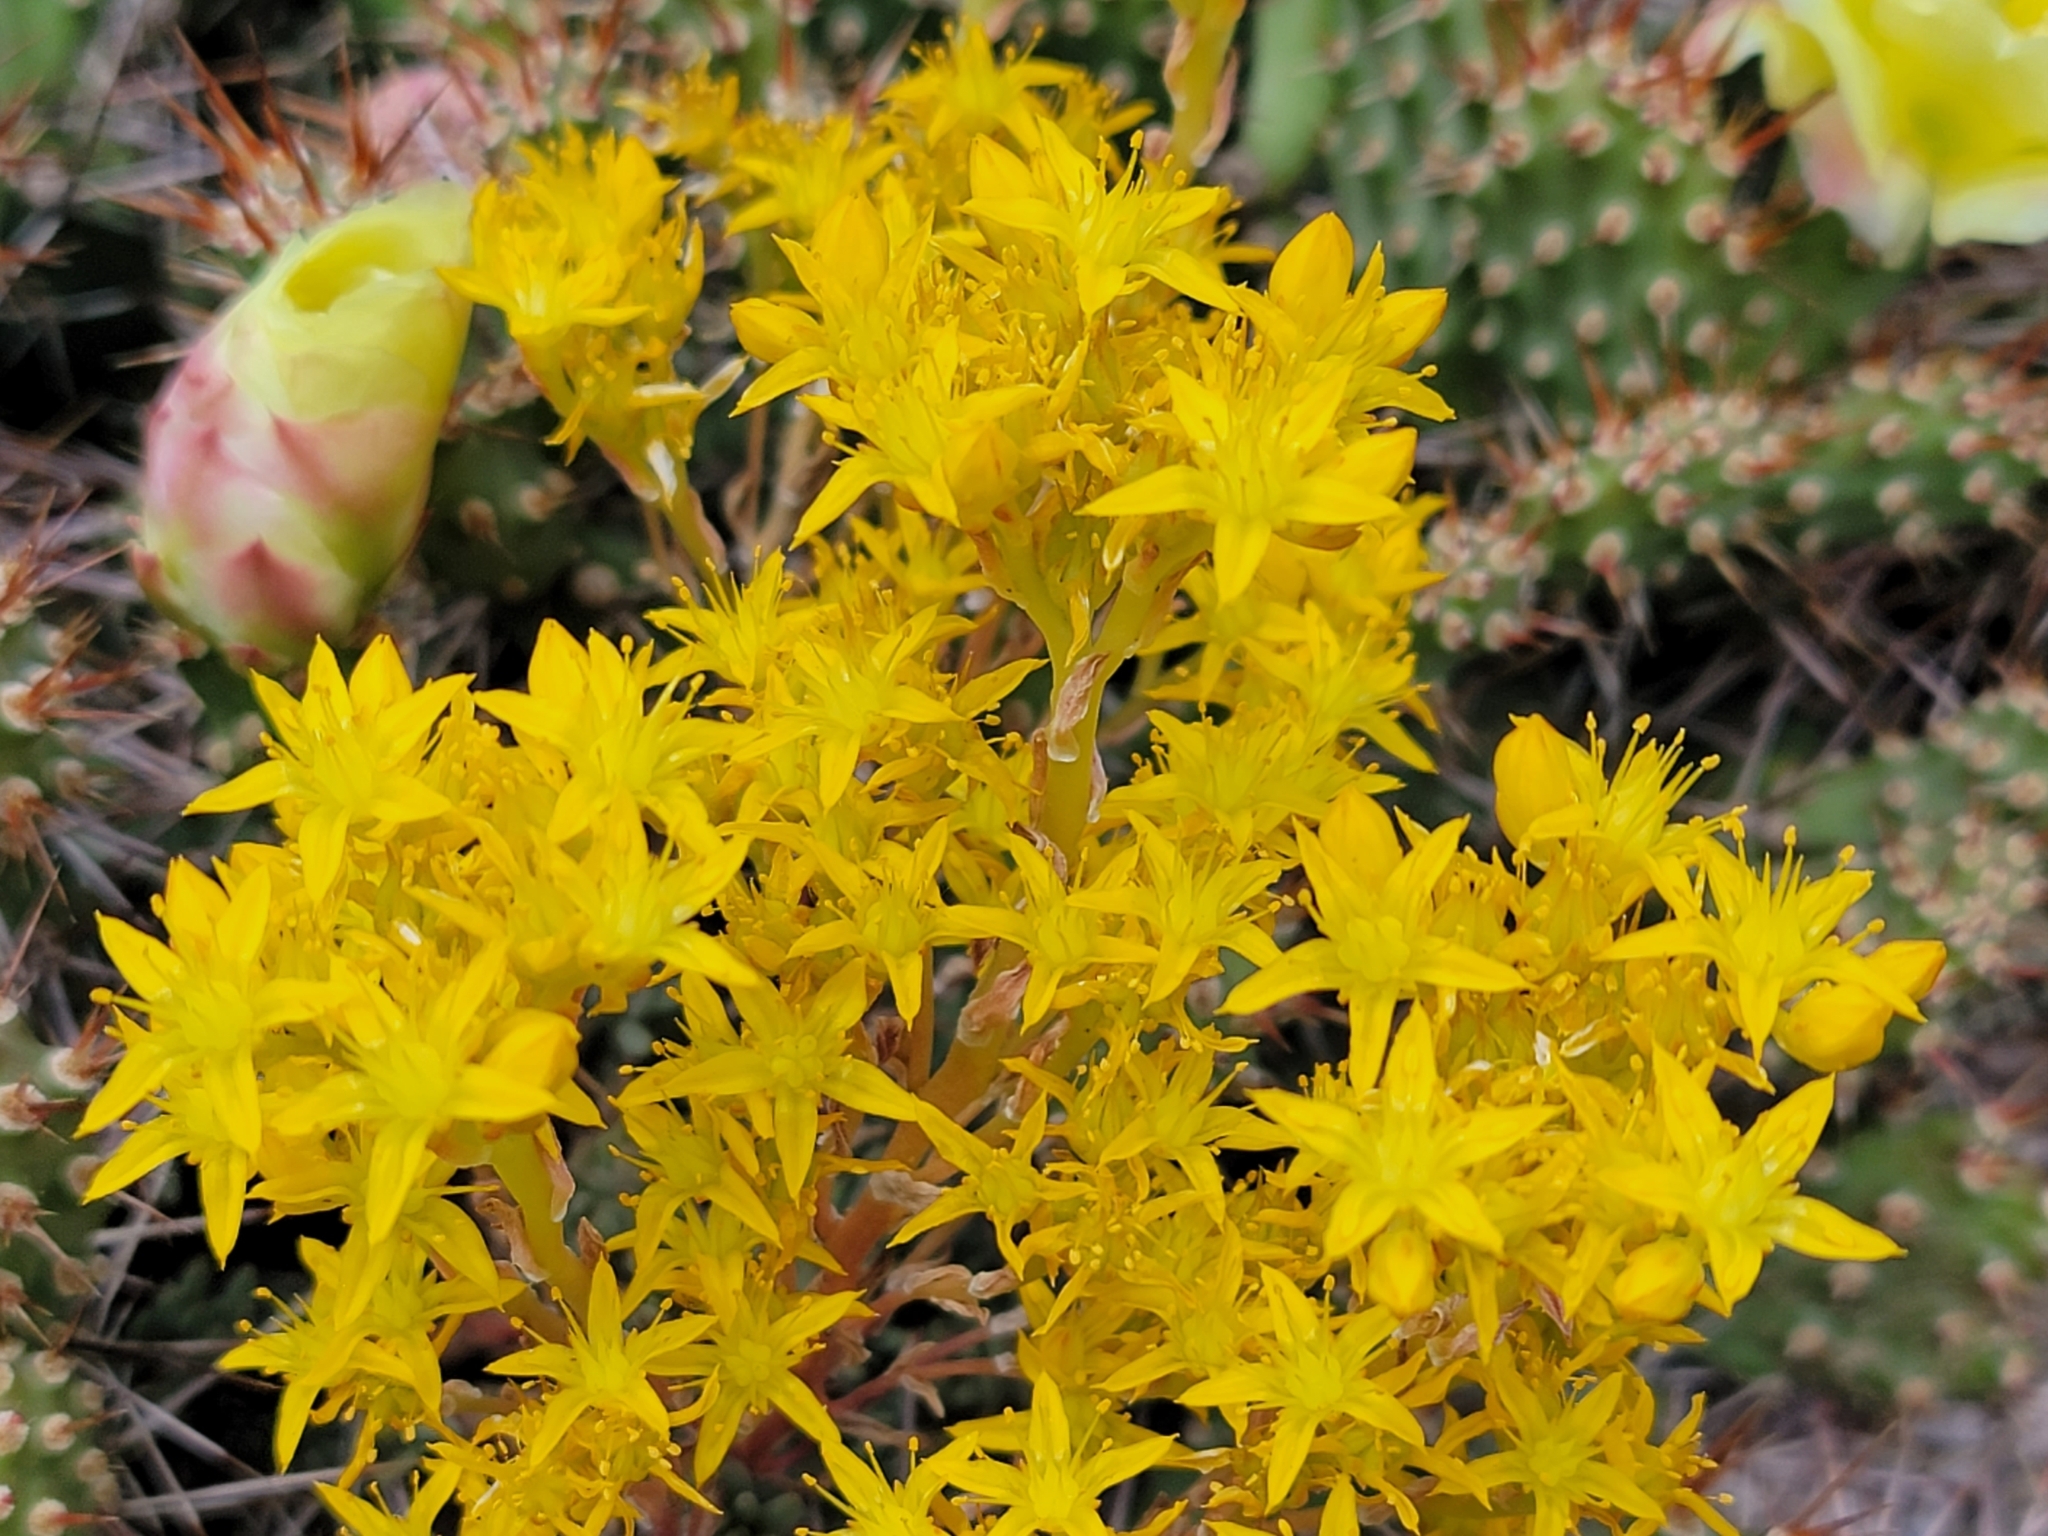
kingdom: Plantae
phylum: Tracheophyta
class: Magnoliopsida
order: Saxifragales
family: Crassulaceae
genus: Sedum
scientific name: Sedum lanceolatum
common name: Common stonecrop
